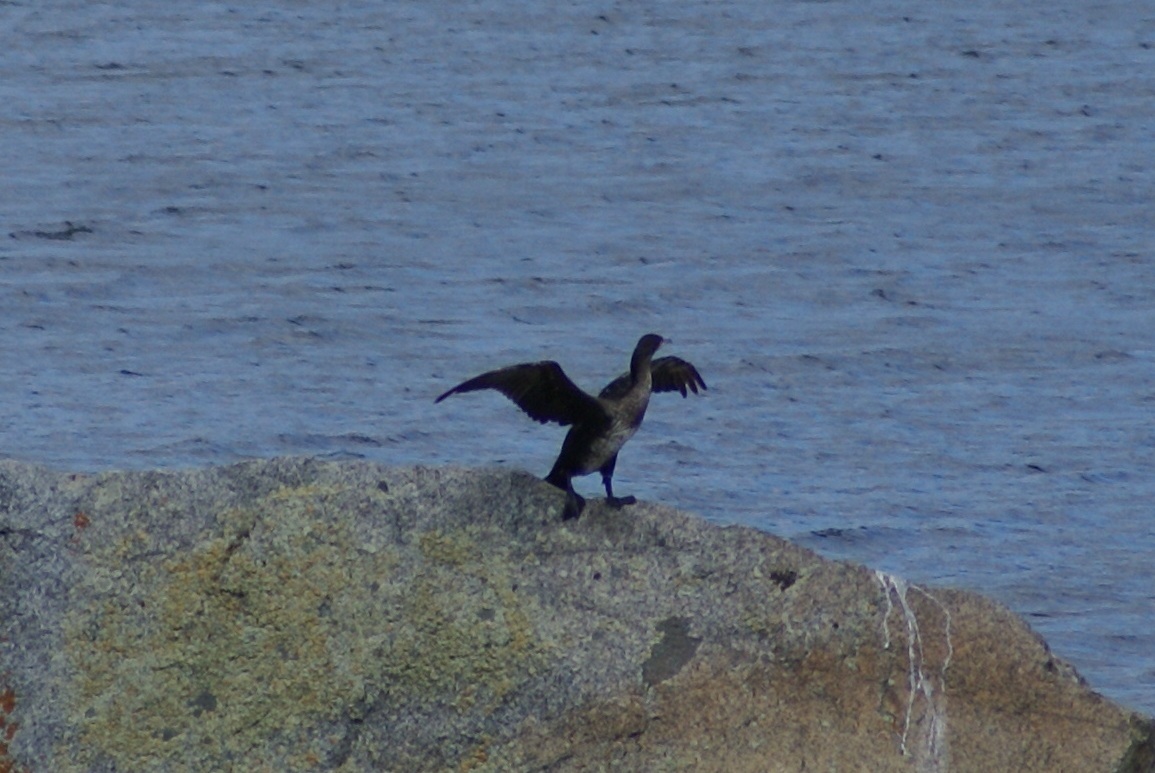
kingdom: Animalia
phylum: Chordata
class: Aves
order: Suliformes
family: Phalacrocoracidae
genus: Phalacrocorax
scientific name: Phalacrocorax carbo
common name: Great cormorant
